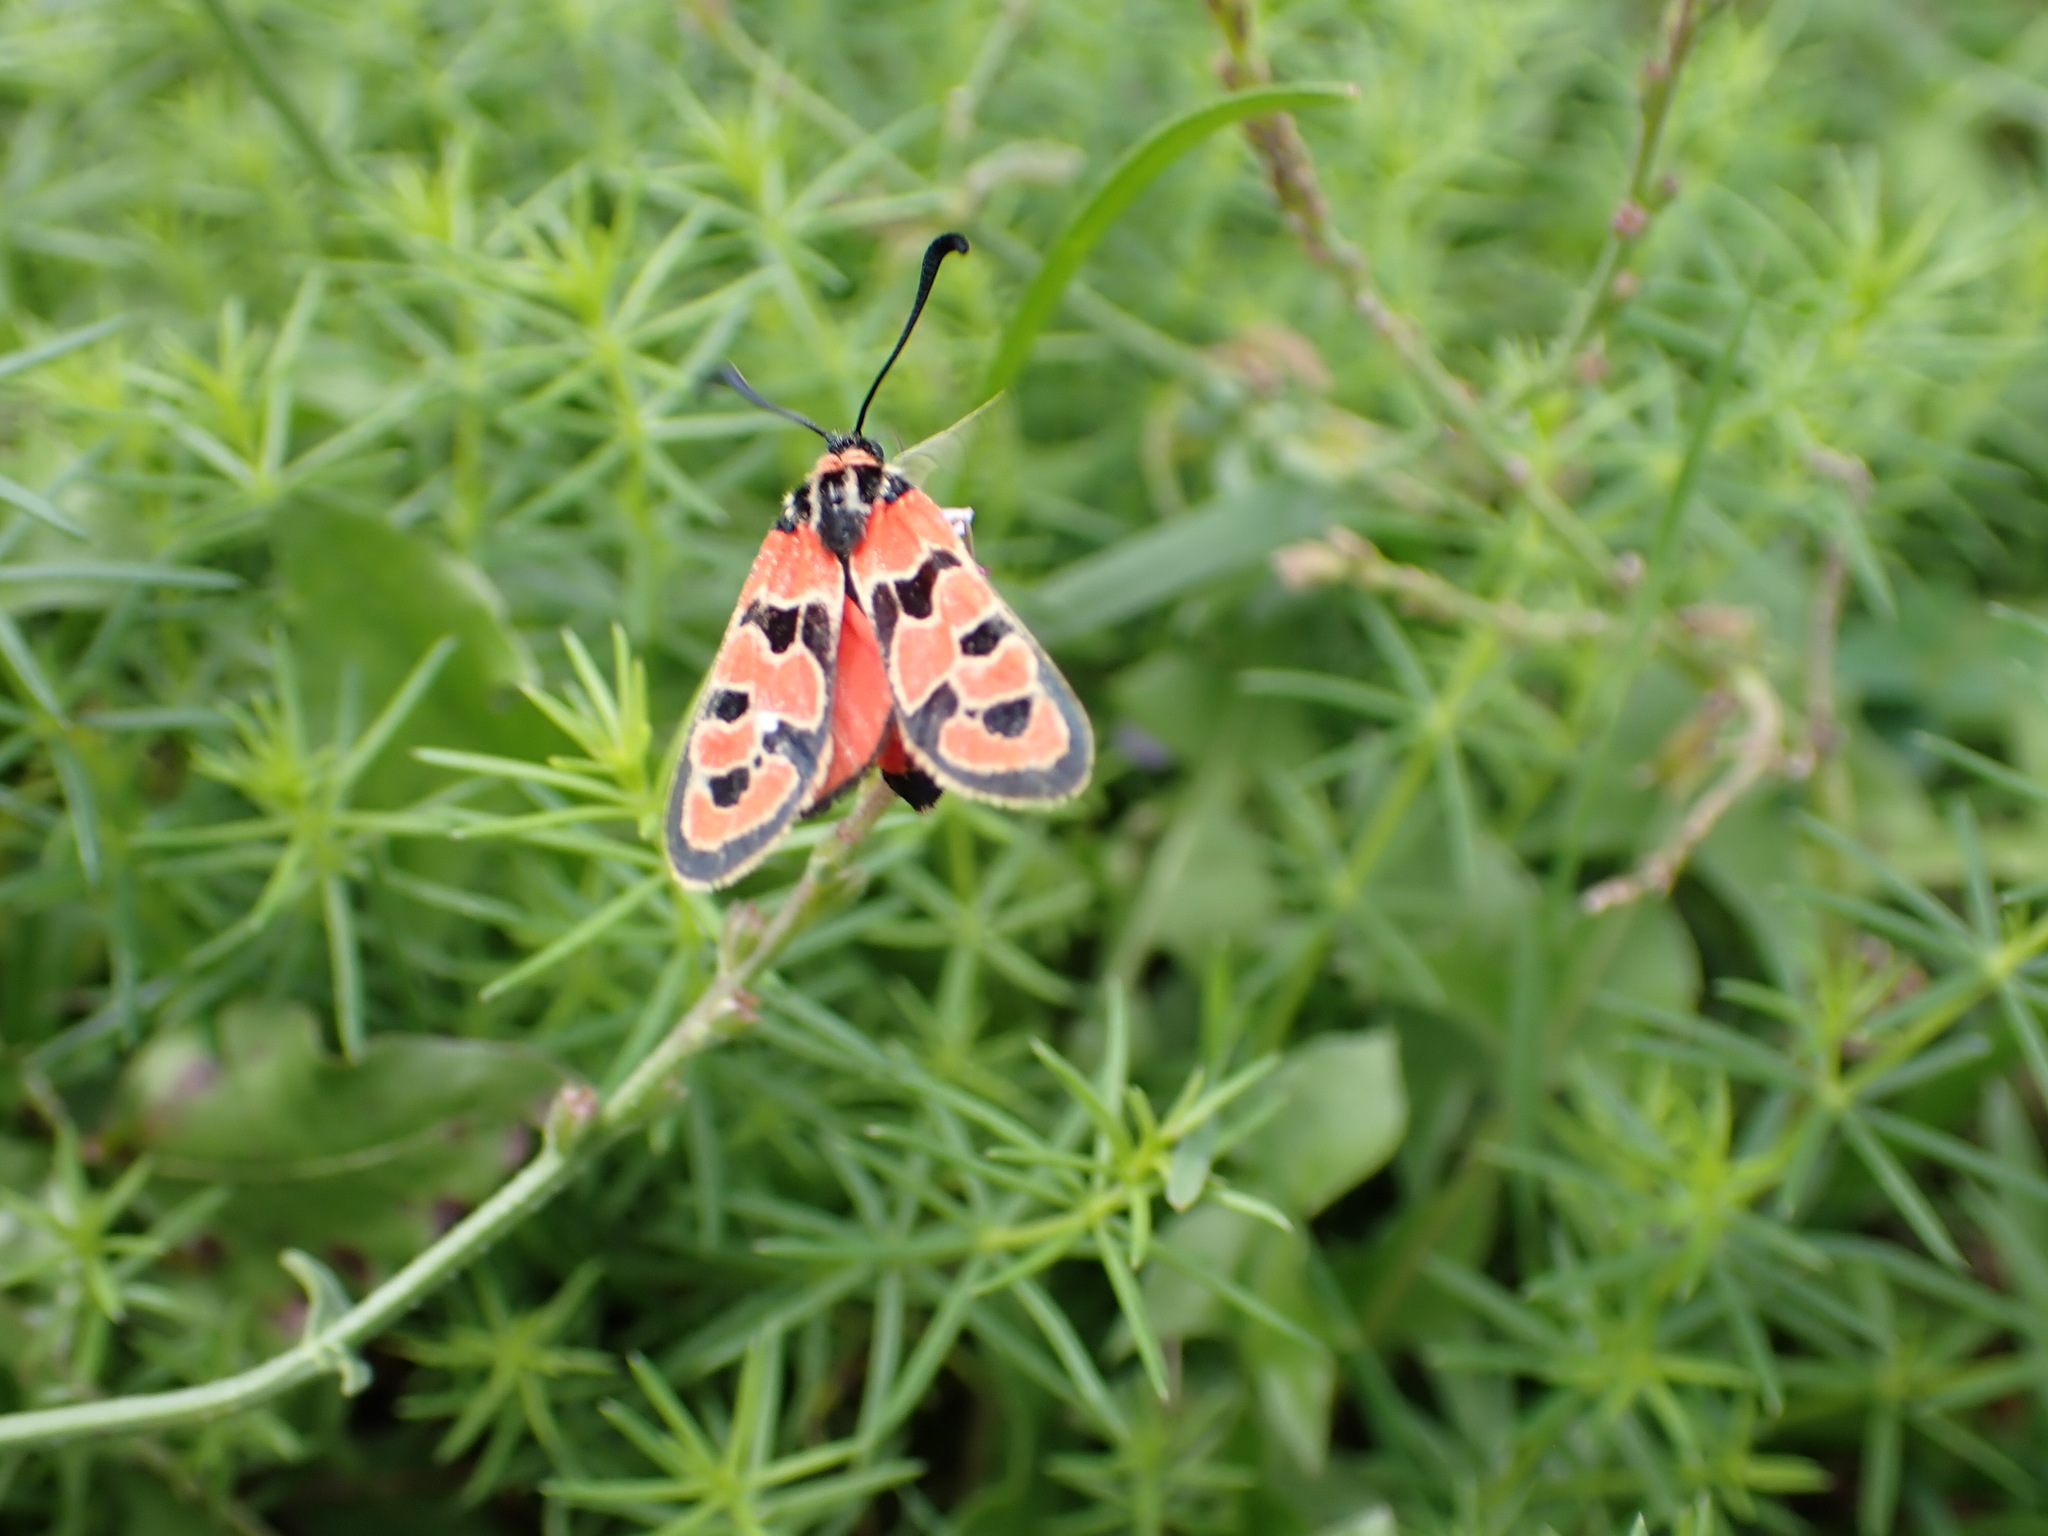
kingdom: Animalia
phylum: Arthropoda
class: Insecta
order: Lepidoptera
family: Zygaenidae
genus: Zygaena
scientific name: Zygaena fausta
